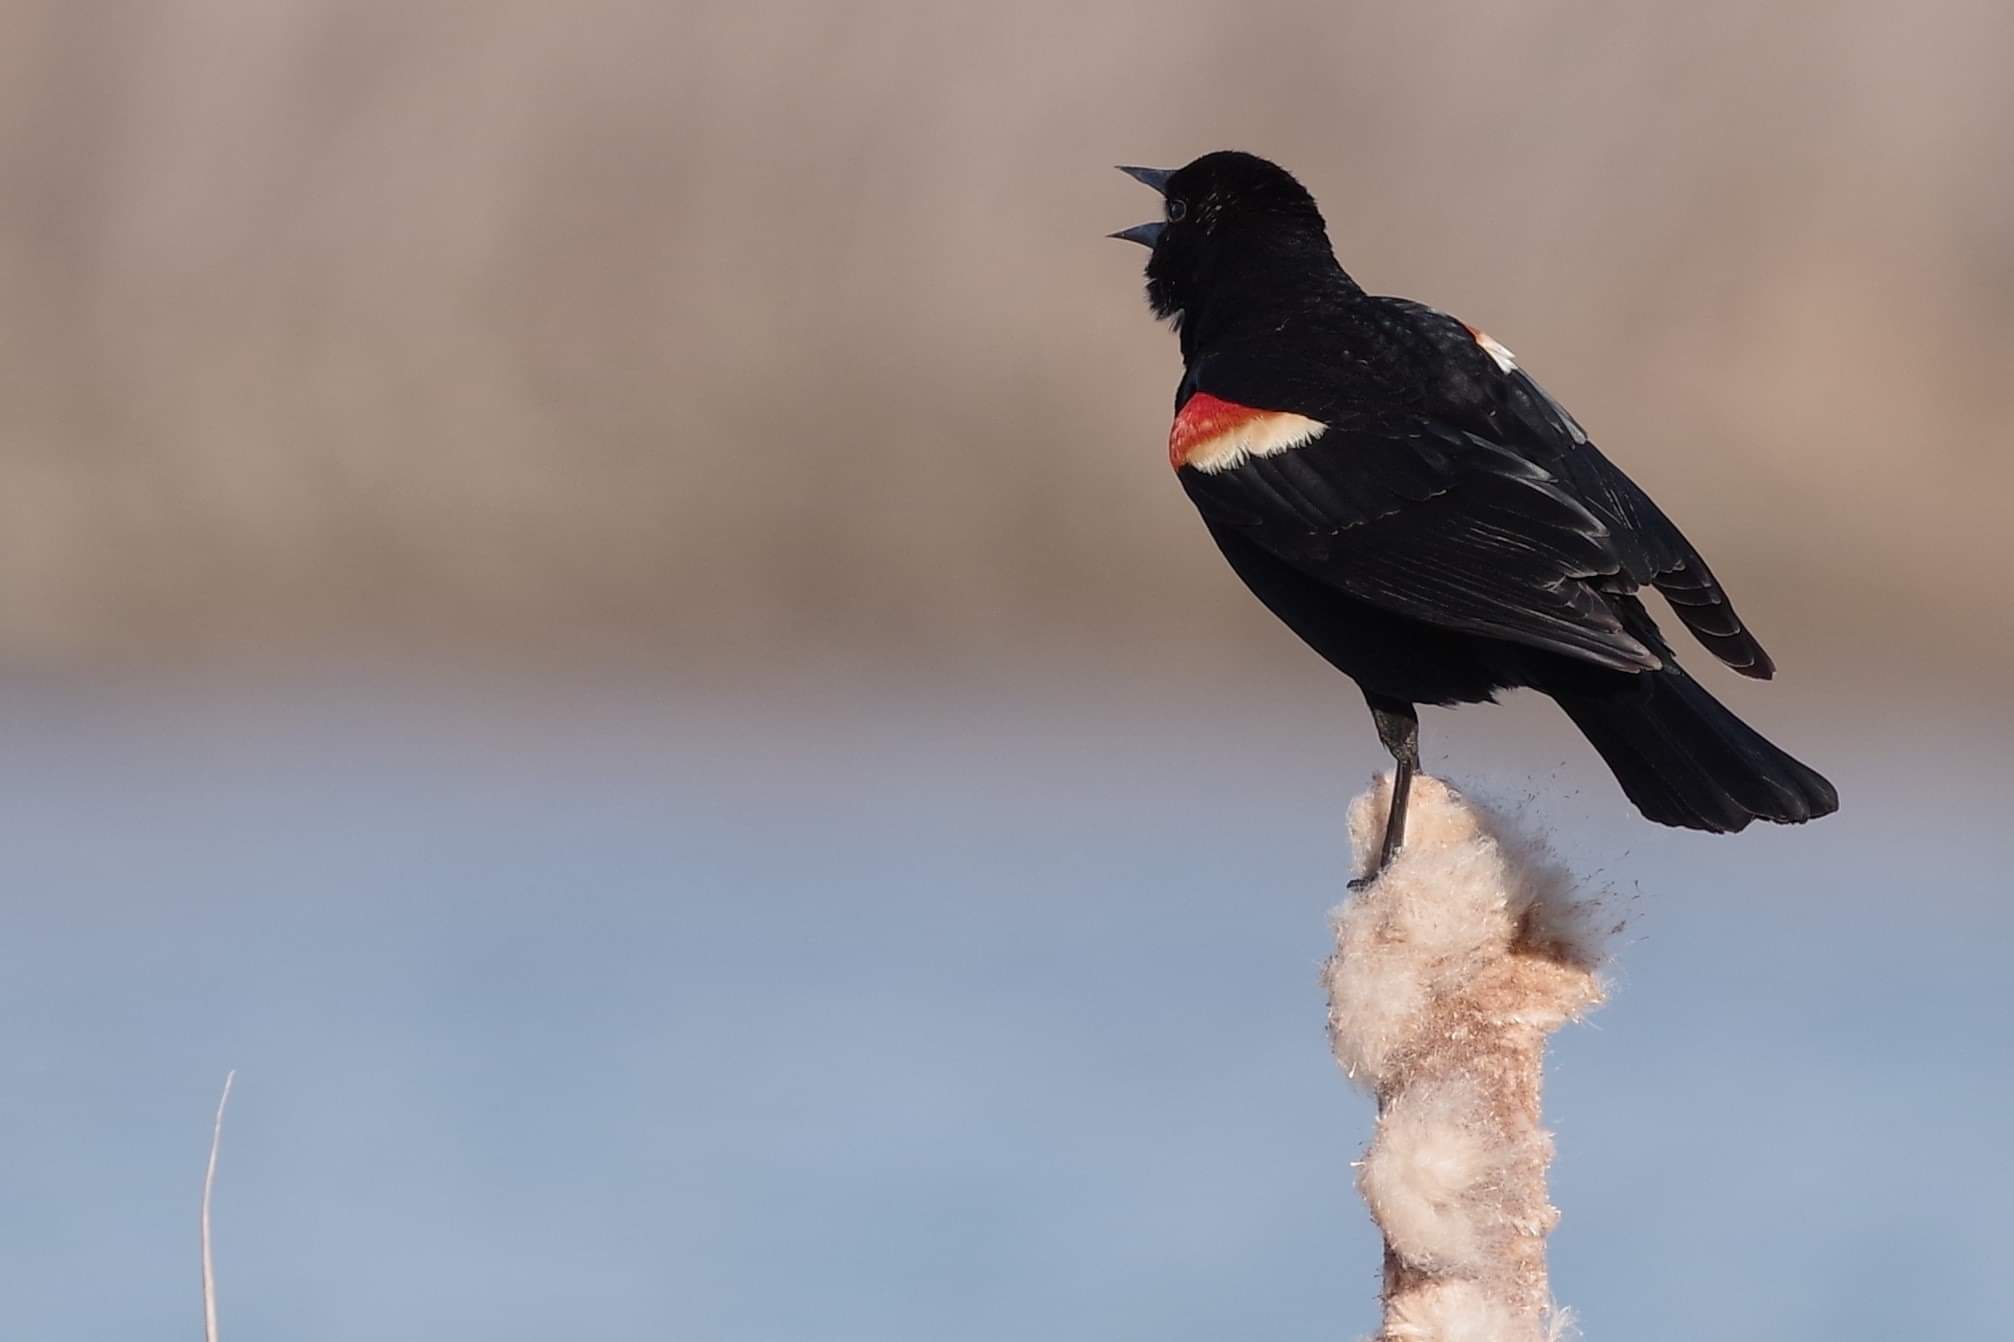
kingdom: Animalia
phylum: Chordata
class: Aves
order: Passeriformes
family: Icteridae
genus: Agelaius
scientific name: Agelaius phoeniceus
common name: Red-winged blackbird
